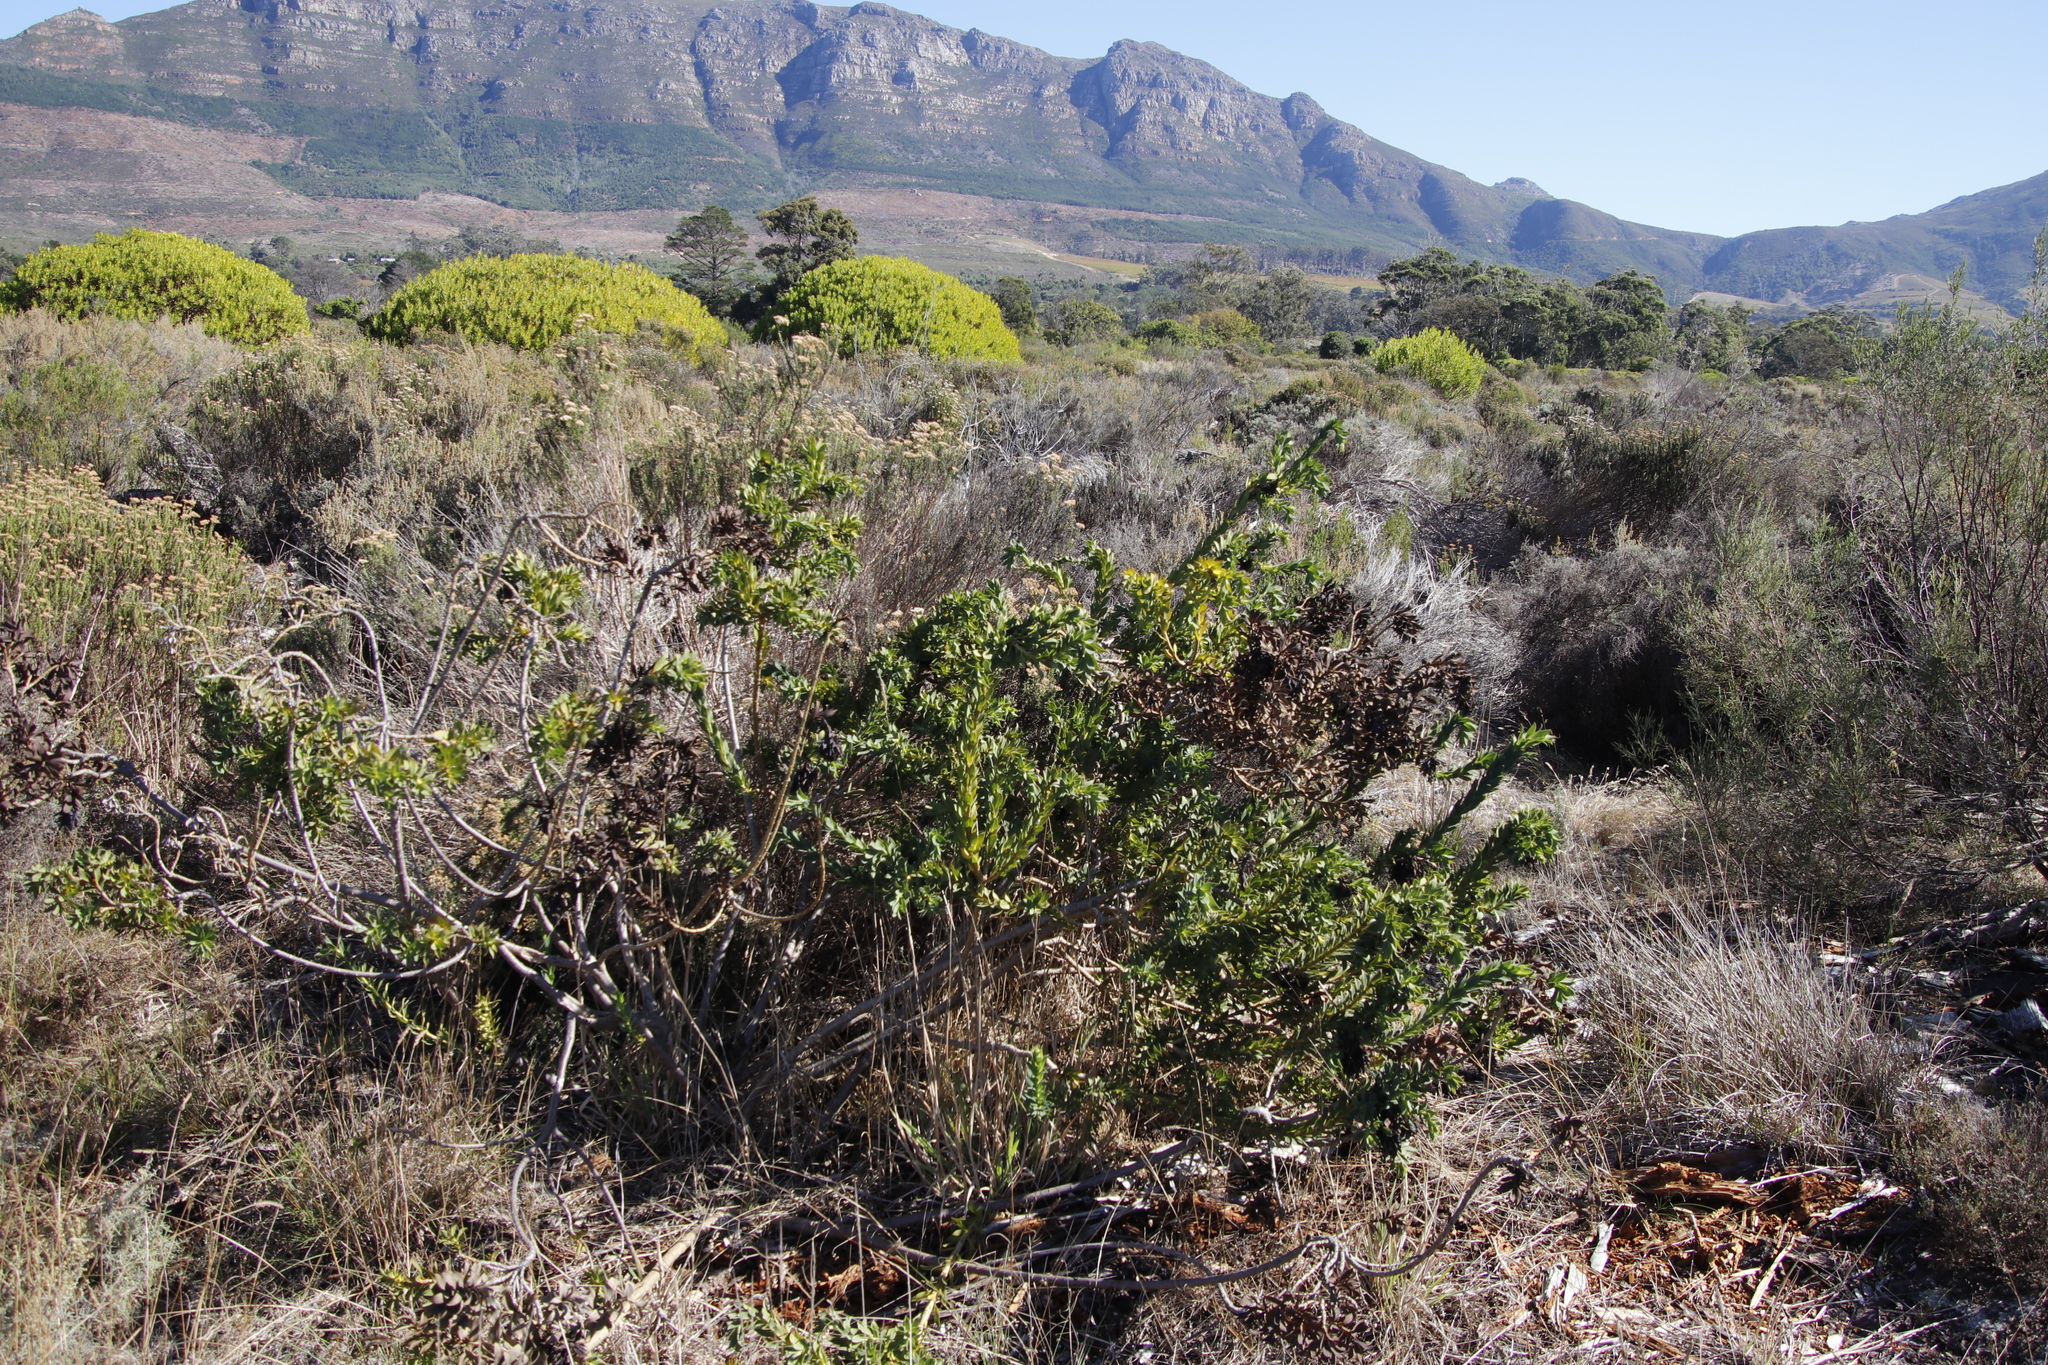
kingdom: Plantae
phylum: Tracheophyta
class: Magnoliopsida
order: Fabales
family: Fabaceae
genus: Liparia
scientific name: Liparia splendens
